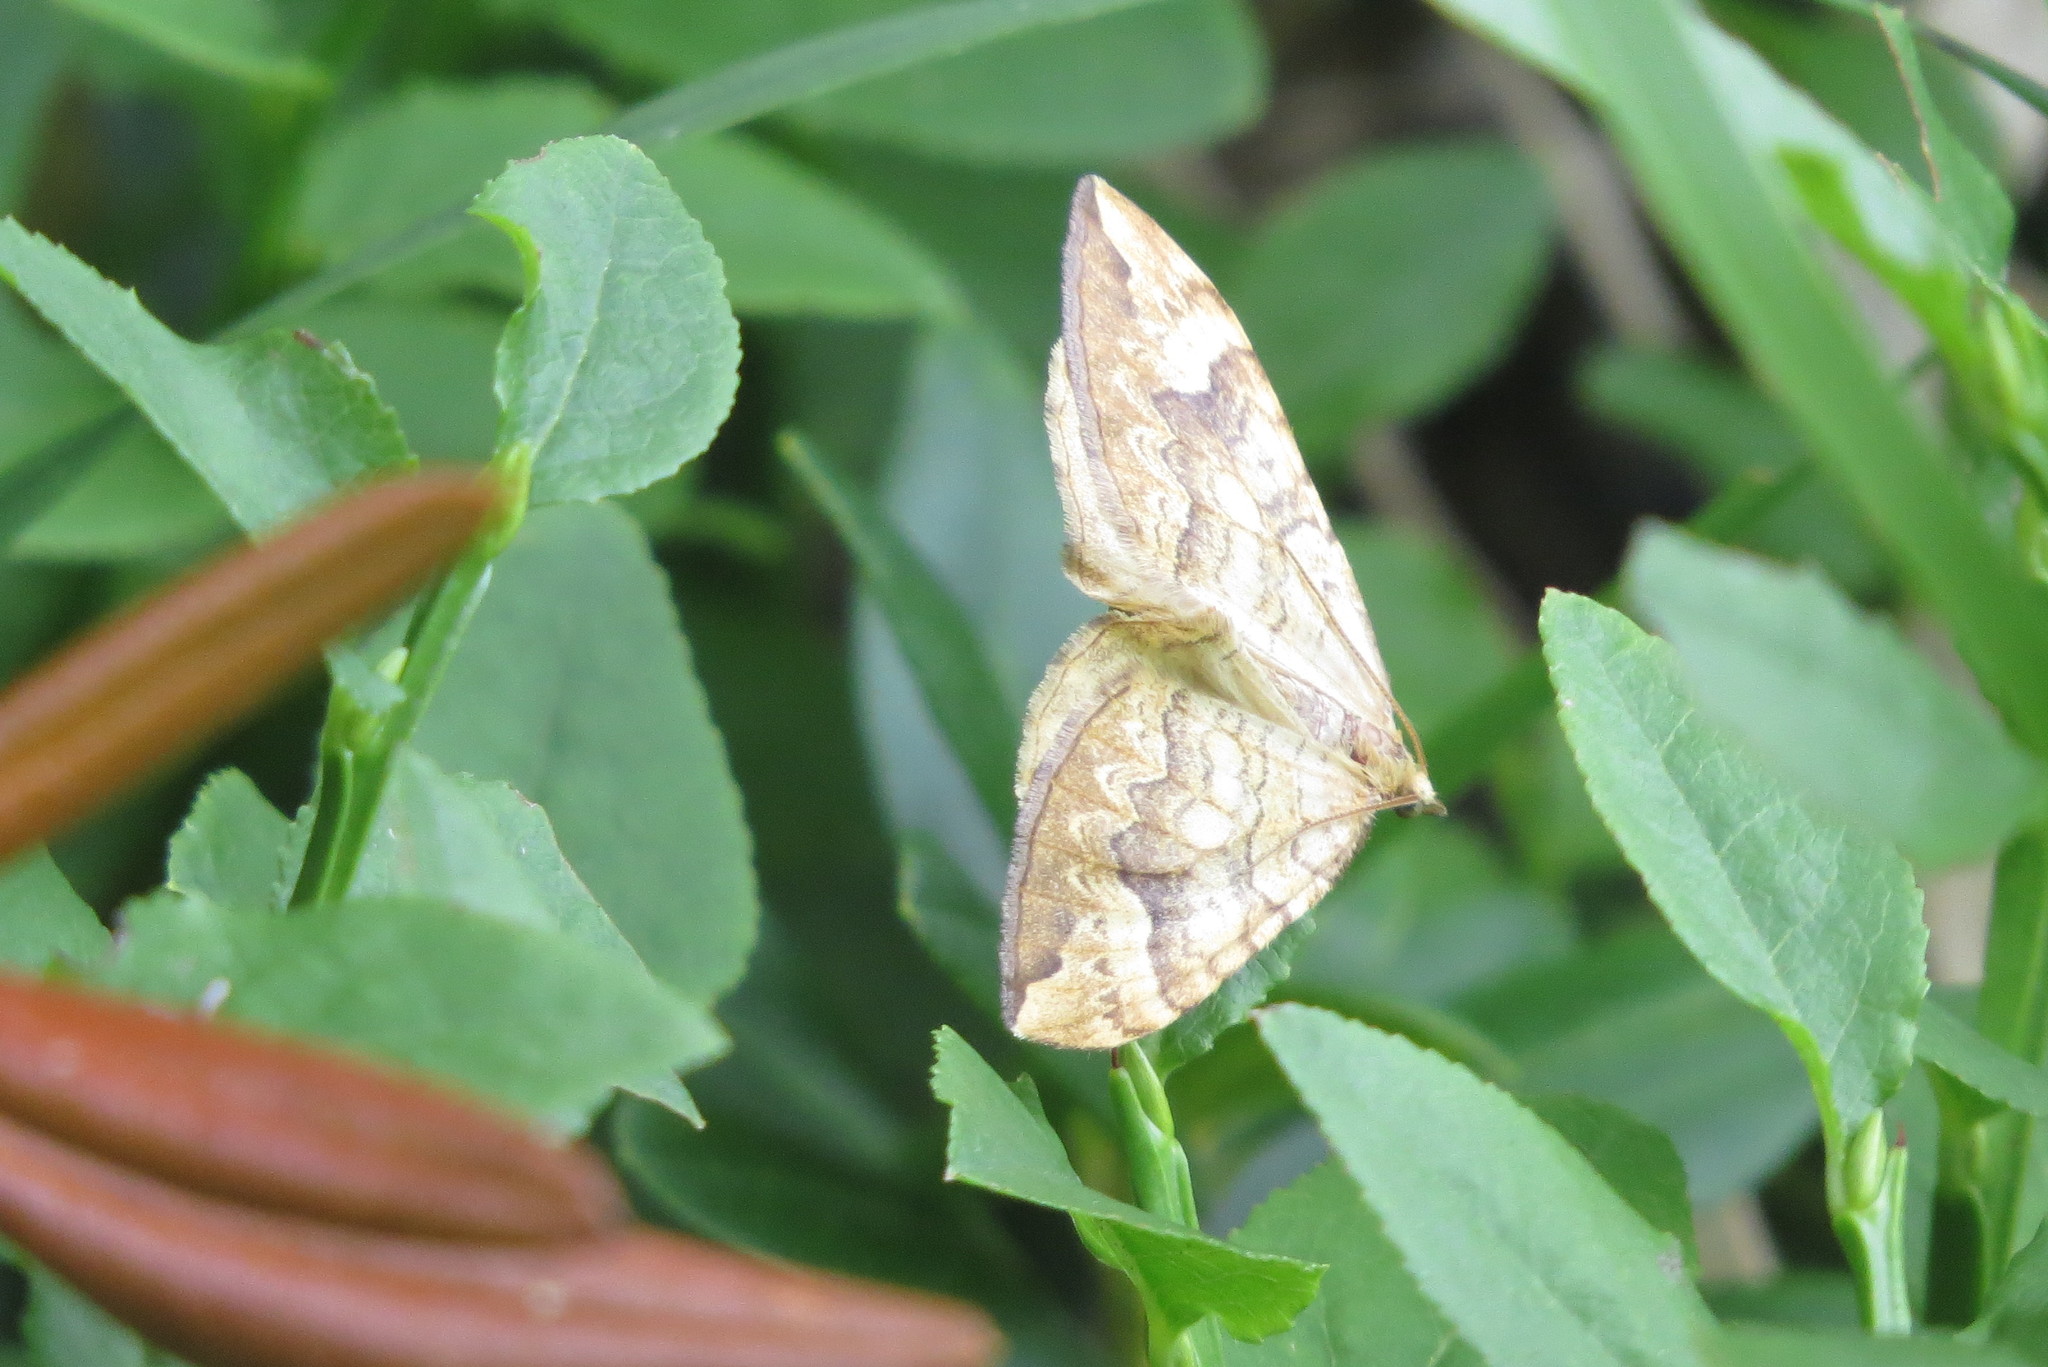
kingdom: Animalia
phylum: Arthropoda
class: Insecta
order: Lepidoptera
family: Geometridae
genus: Eulithis
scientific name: Eulithis populata
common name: Northern spinach
